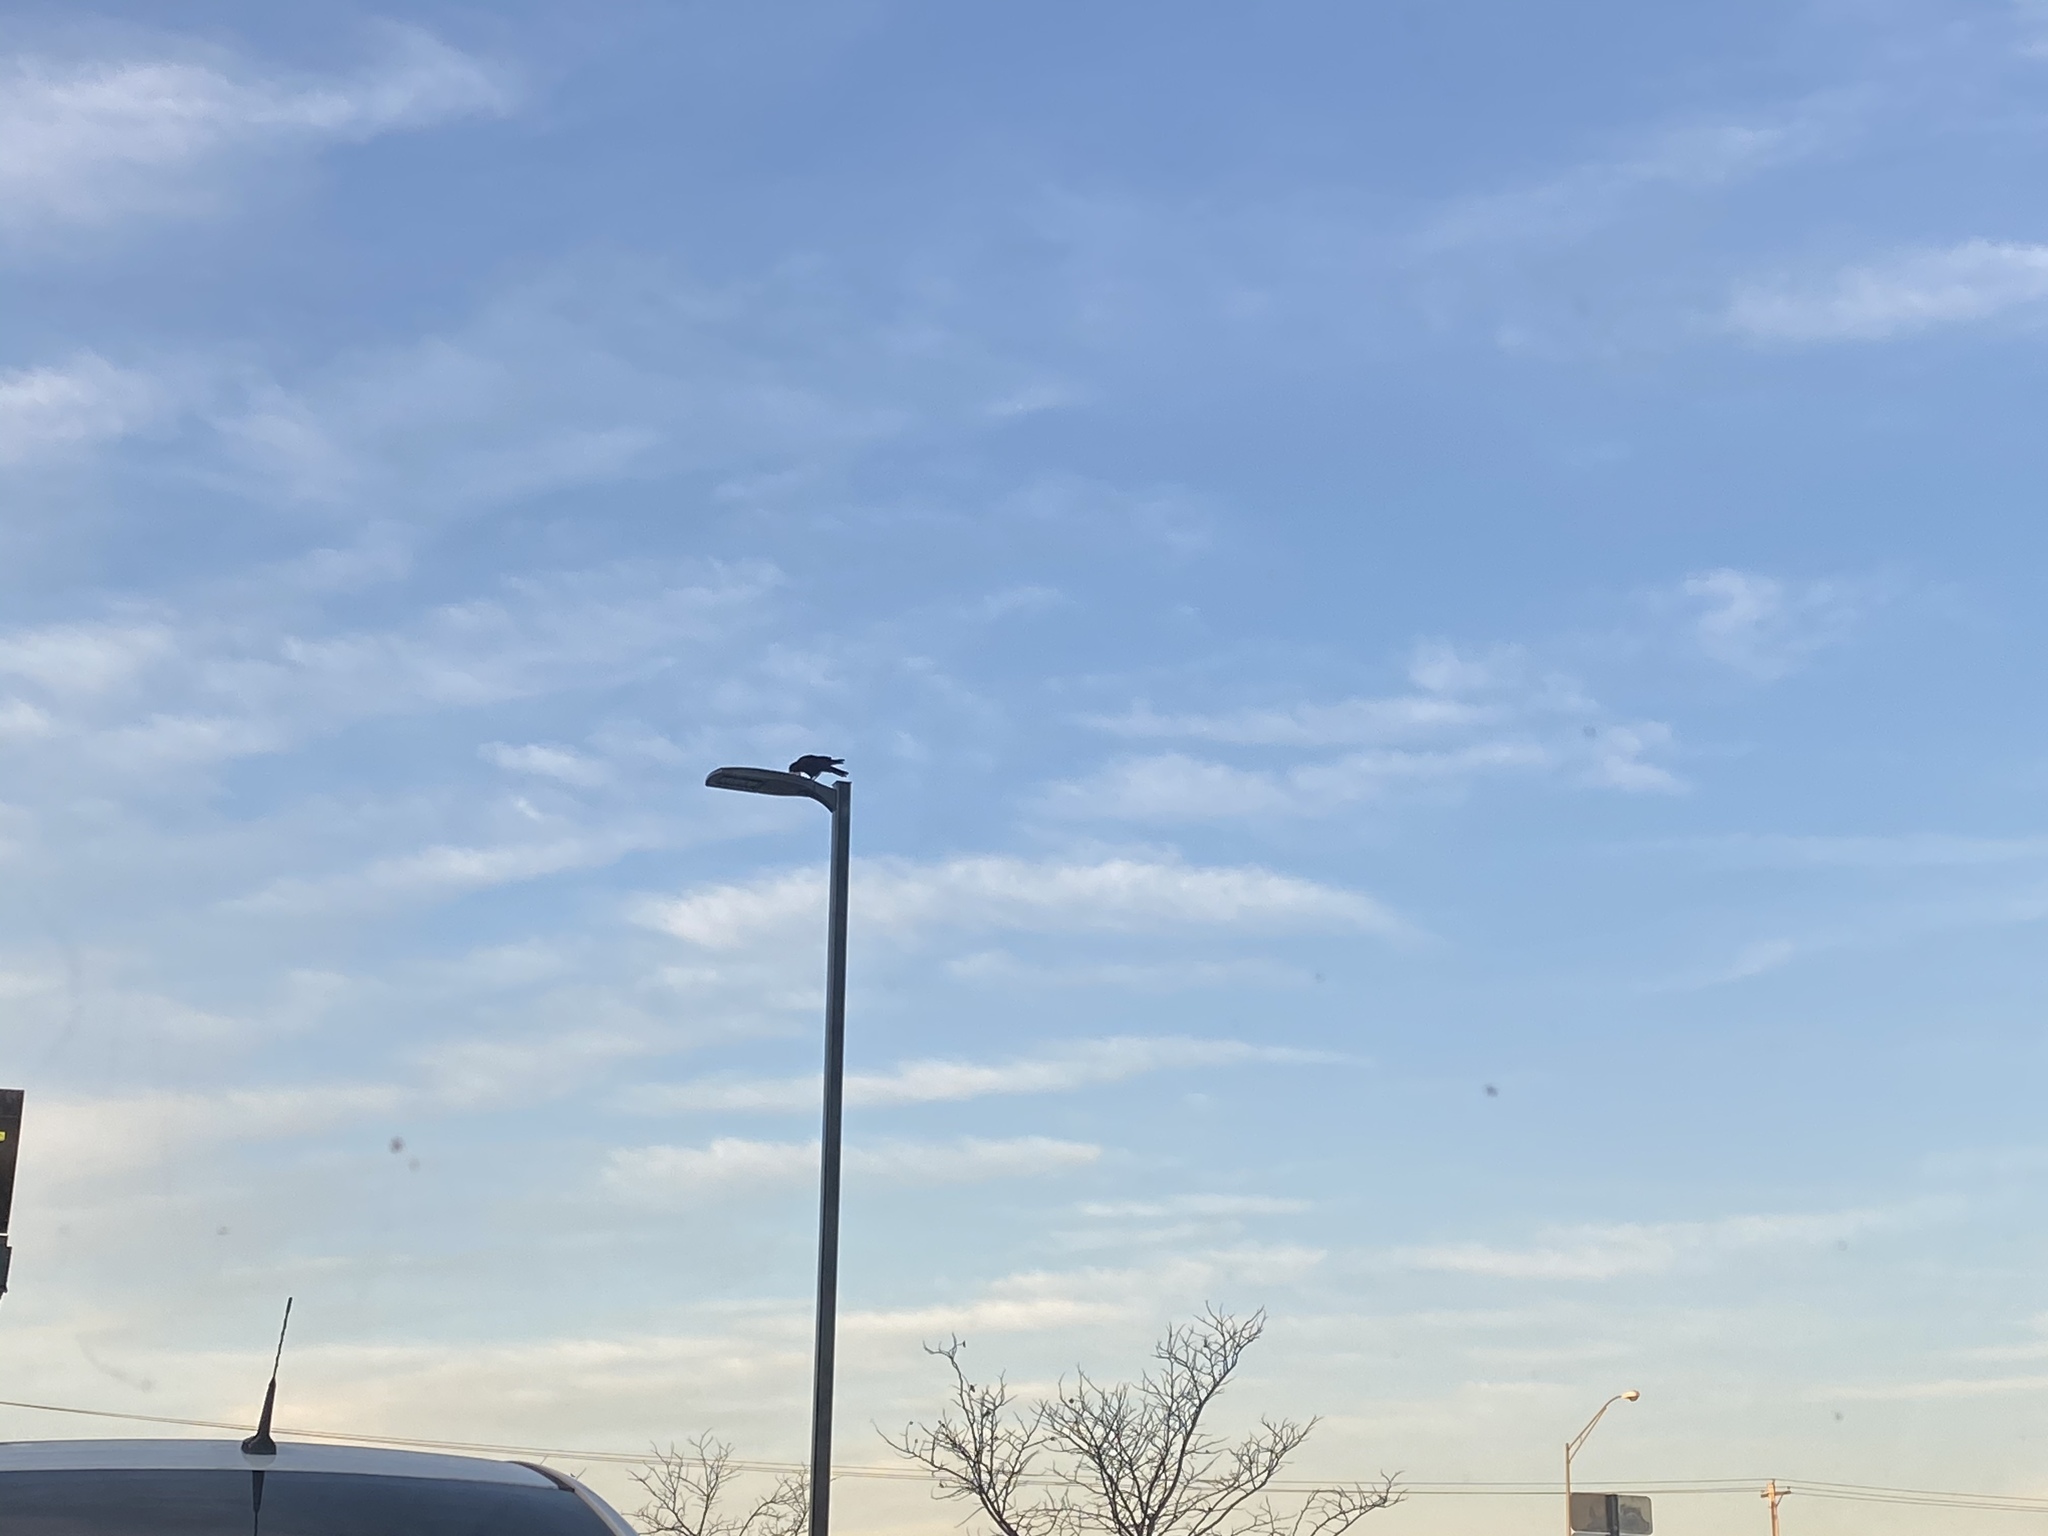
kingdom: Animalia
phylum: Chordata
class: Aves
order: Passeriformes
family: Corvidae
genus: Corvus
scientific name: Corvus brachyrhynchos
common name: American crow
